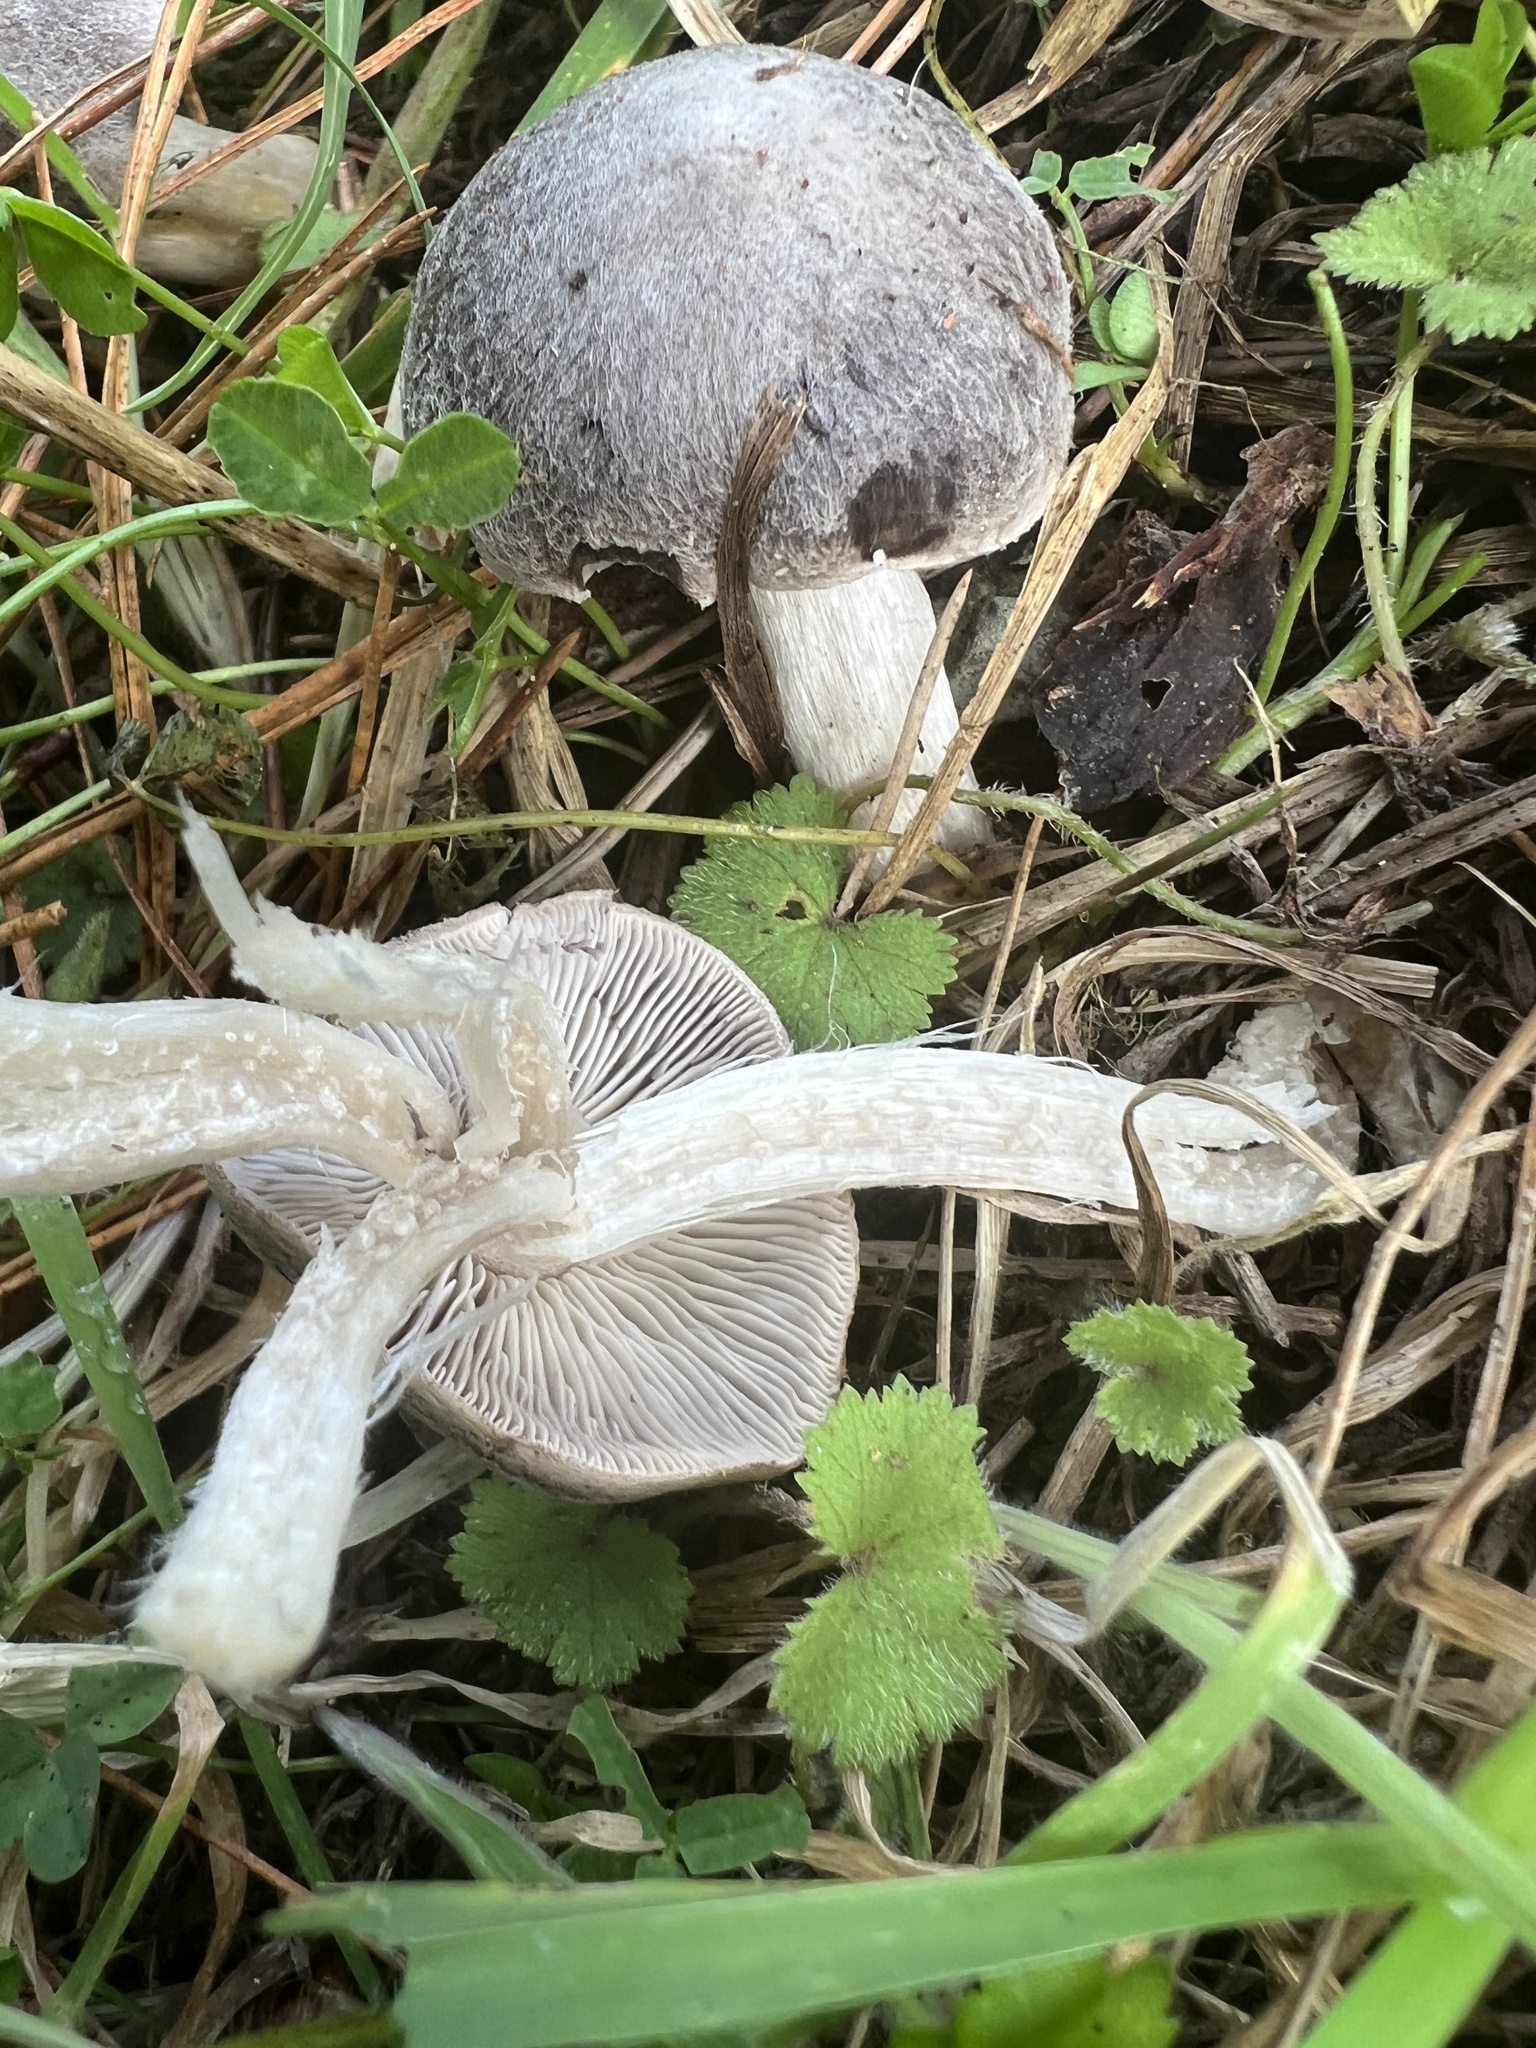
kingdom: Fungi
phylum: Basidiomycota
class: Agaricomycetes
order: Agaricales
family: Tricholomataceae
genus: Tricholoma
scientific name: Tricholoma terreum
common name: Grey knight
